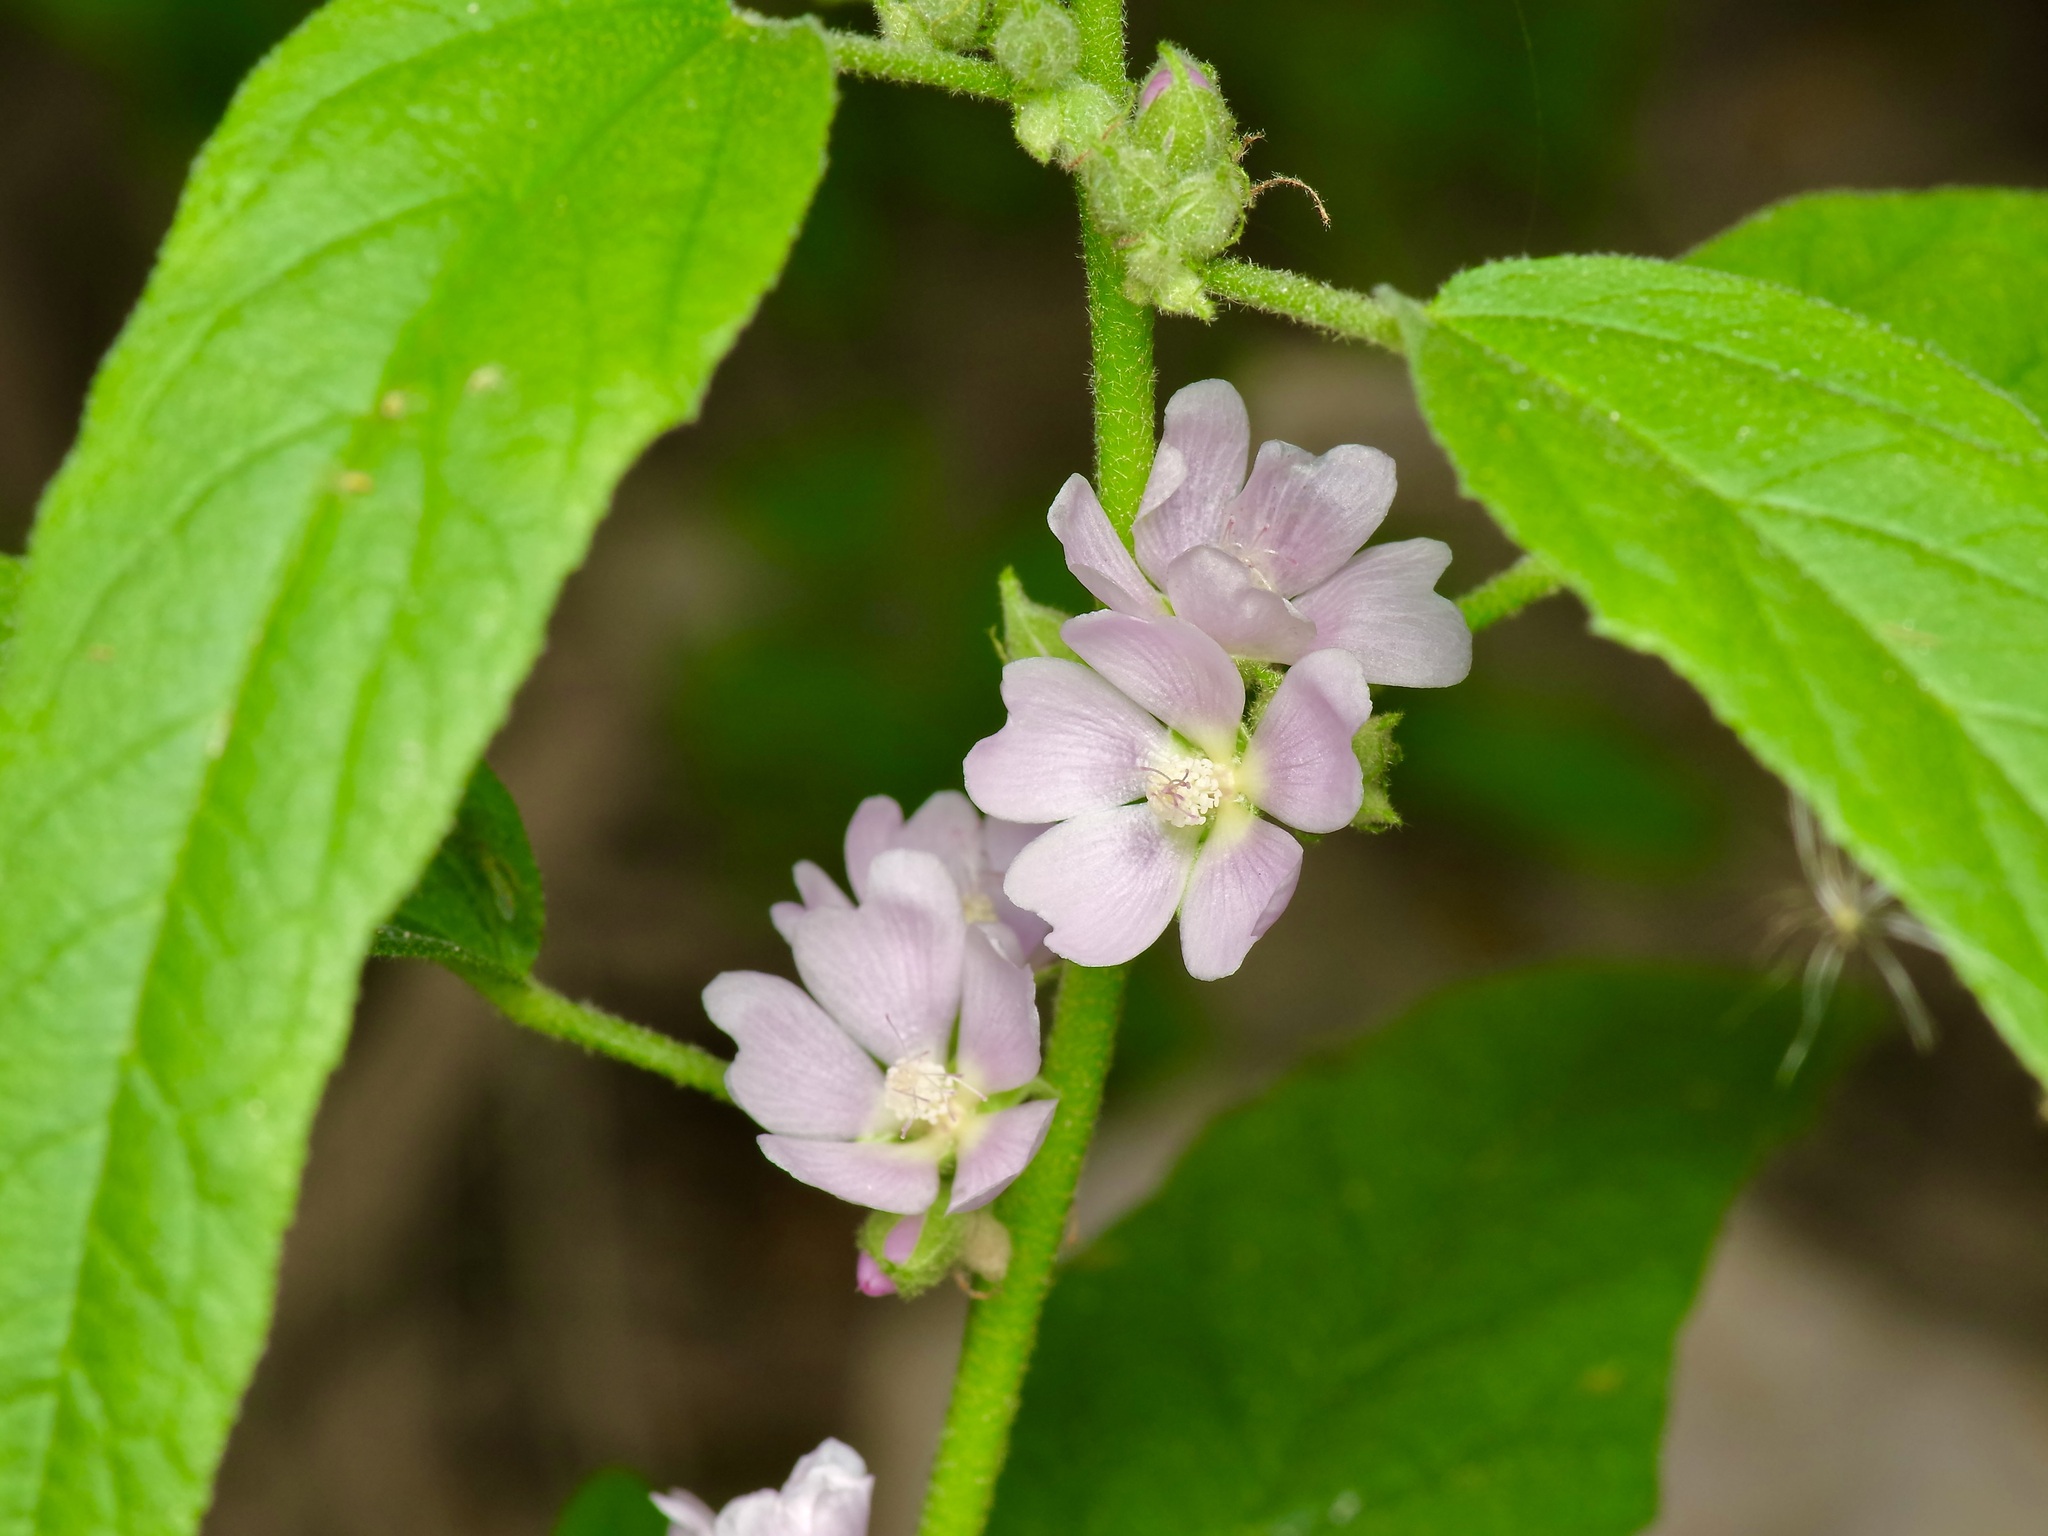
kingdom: Plantae
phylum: Tracheophyta
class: Magnoliopsida
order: Malvales
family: Malvaceae
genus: Sphaeralcea
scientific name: Sphaeralcea angustifolia
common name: Copper globe-mallow
